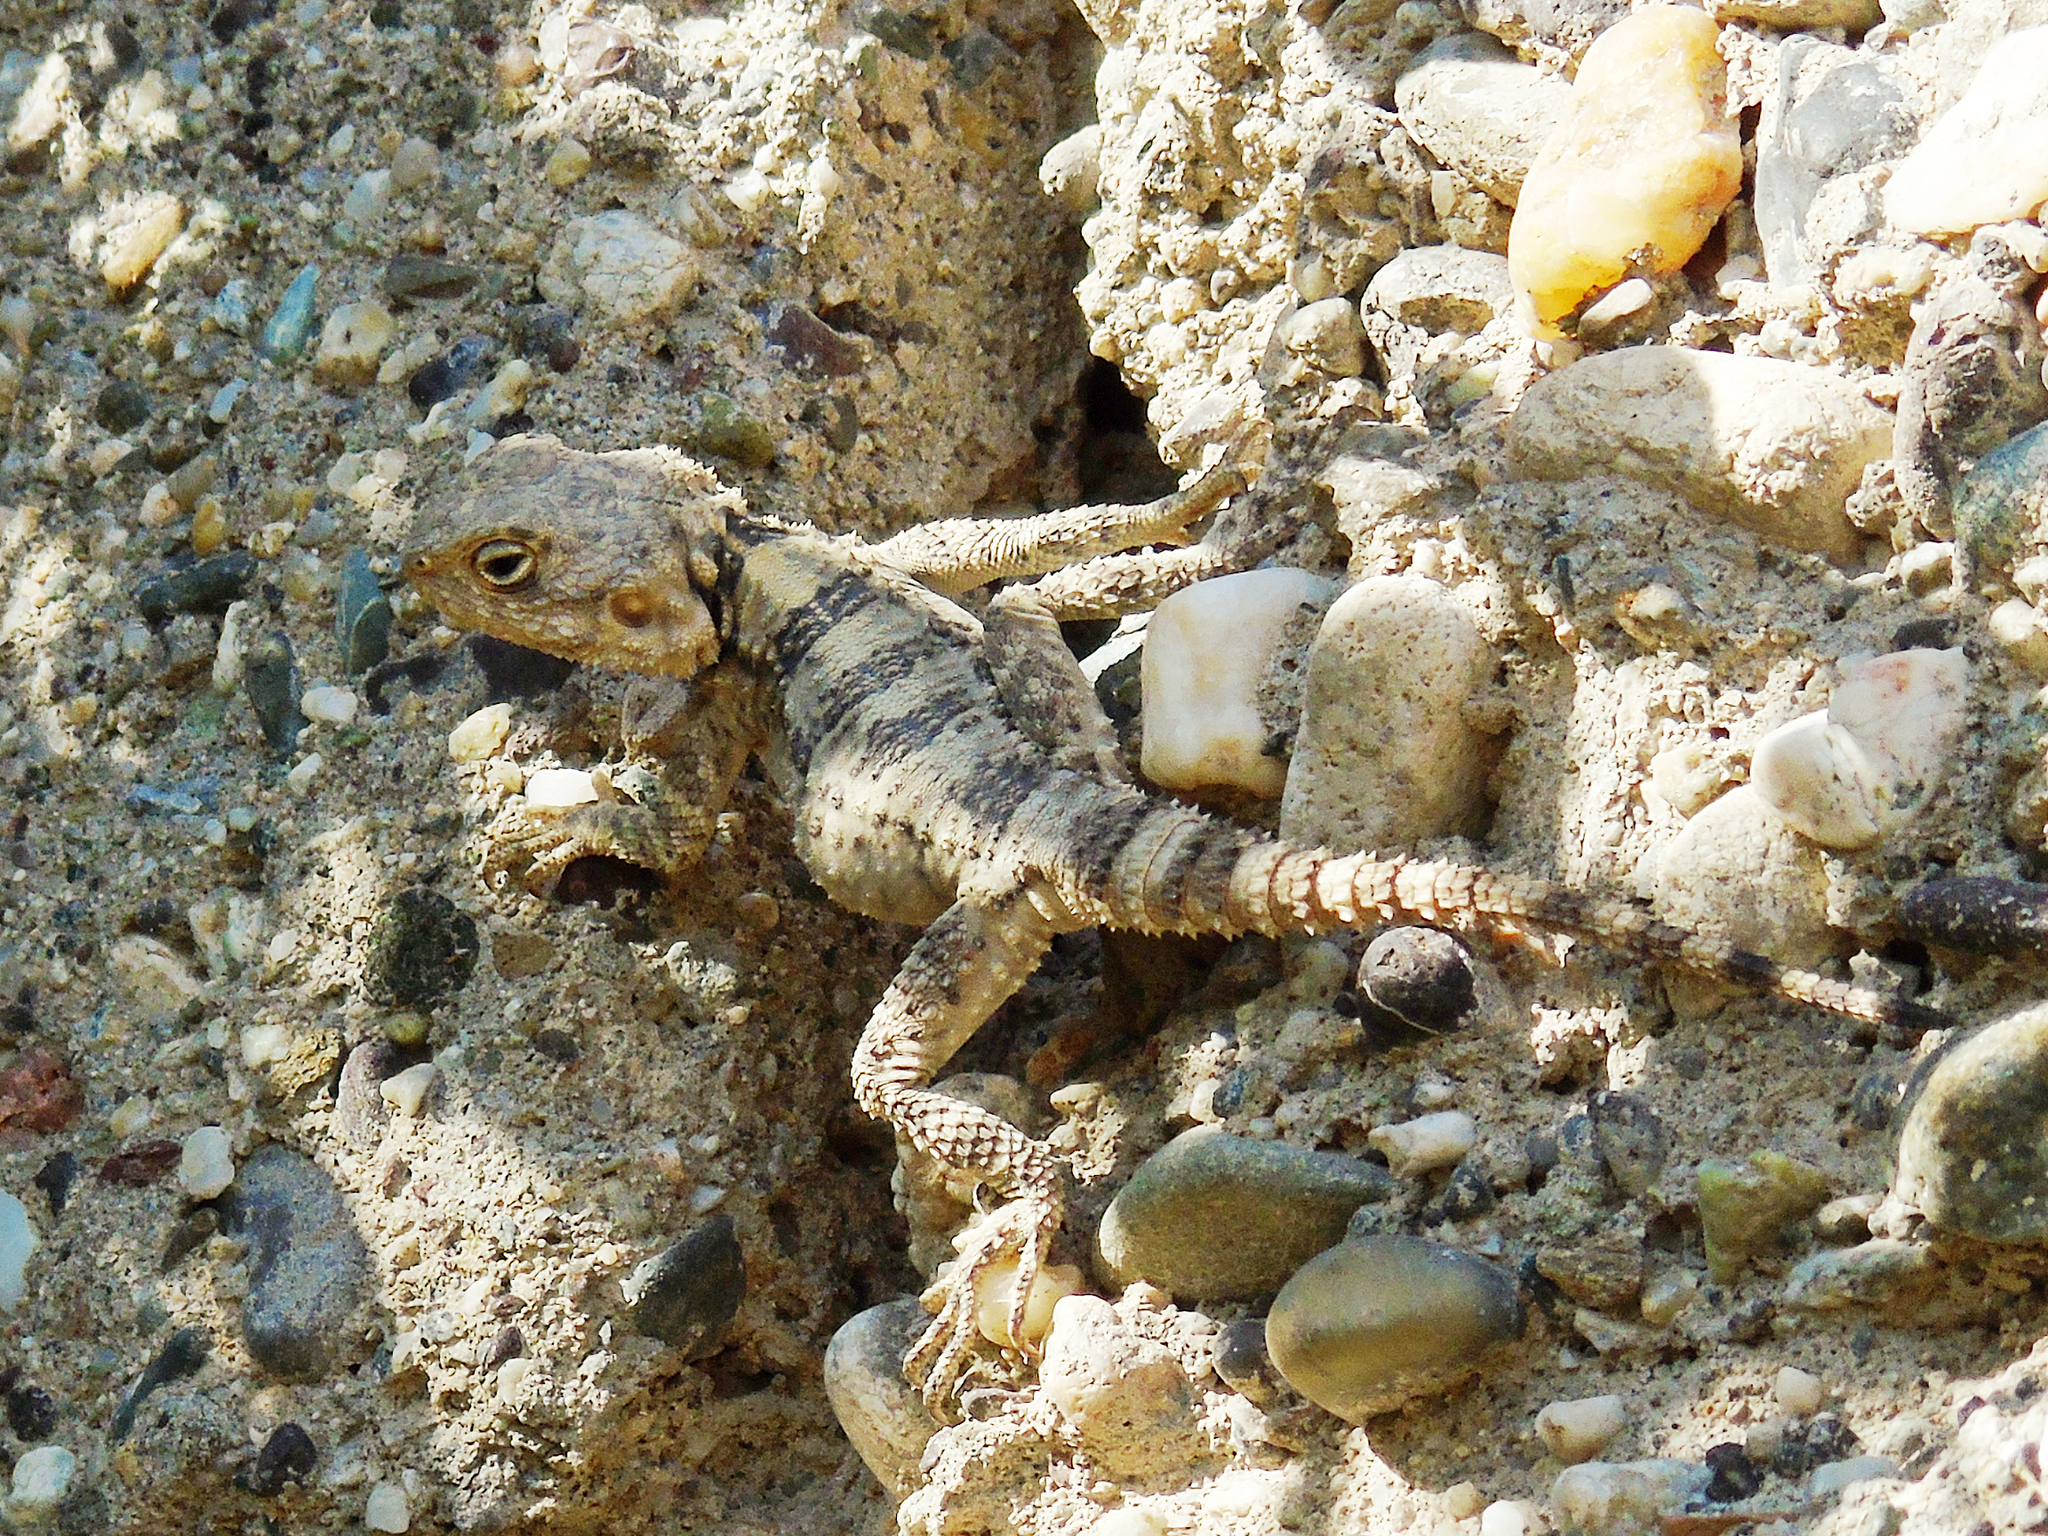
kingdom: Animalia
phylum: Chordata
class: Squamata
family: Agamidae
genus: Stellagama
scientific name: Stellagama stellio
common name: Starred agama
